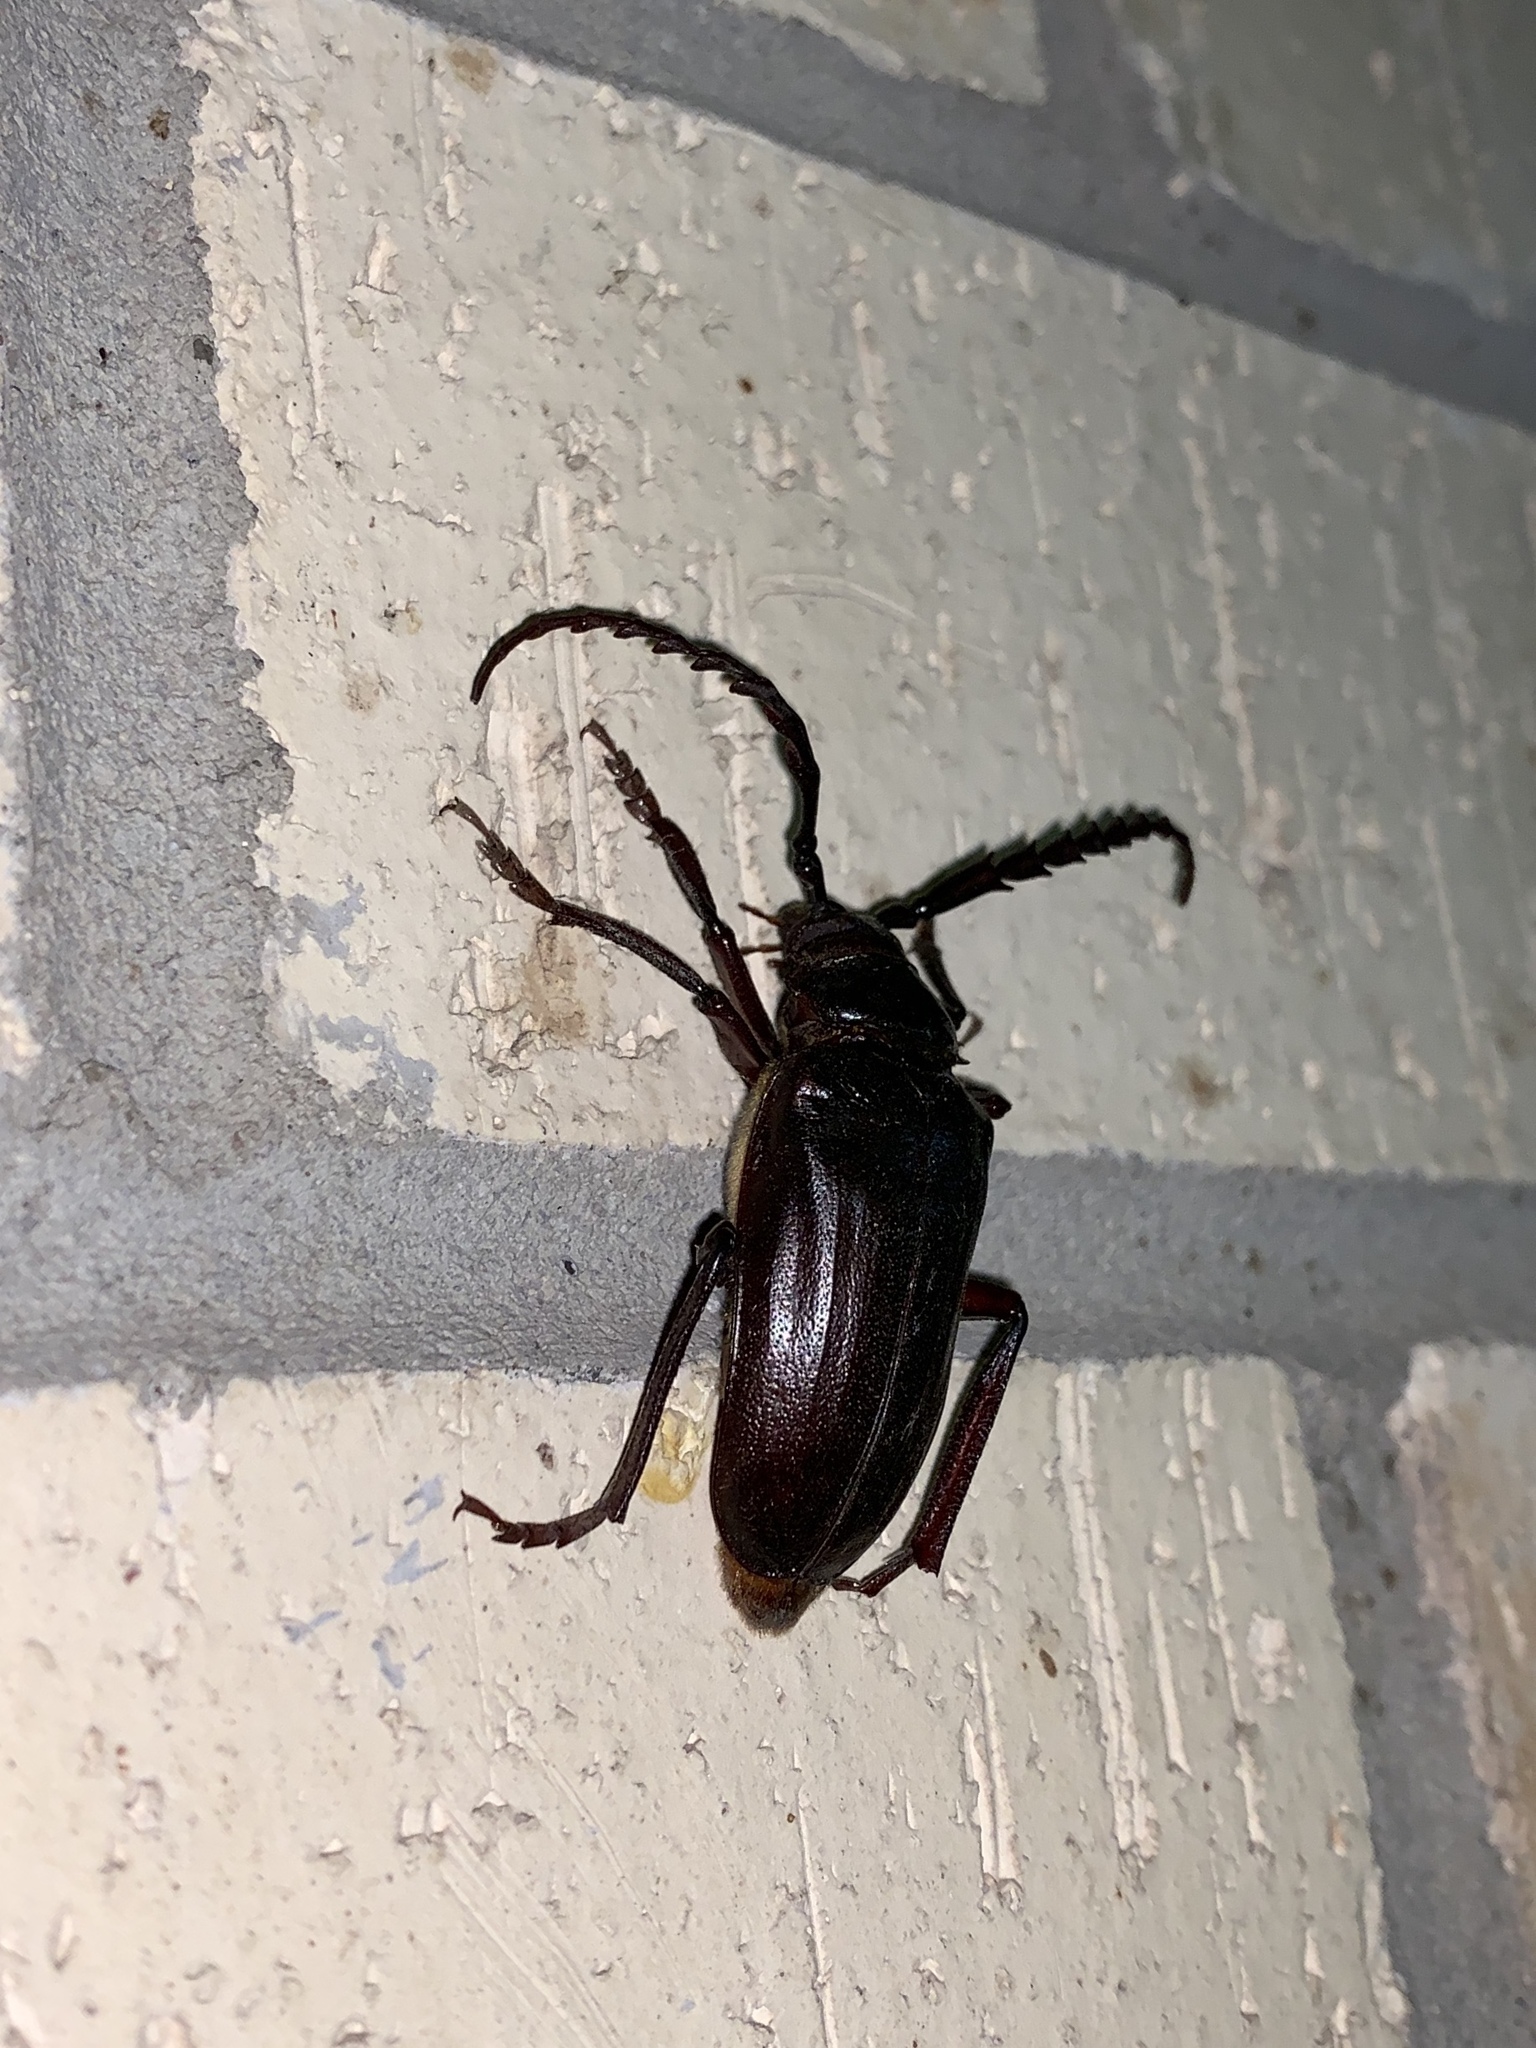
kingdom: Animalia
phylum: Arthropoda
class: Insecta
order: Coleoptera
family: Cerambycidae
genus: Prionus
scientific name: Prionus californicus
